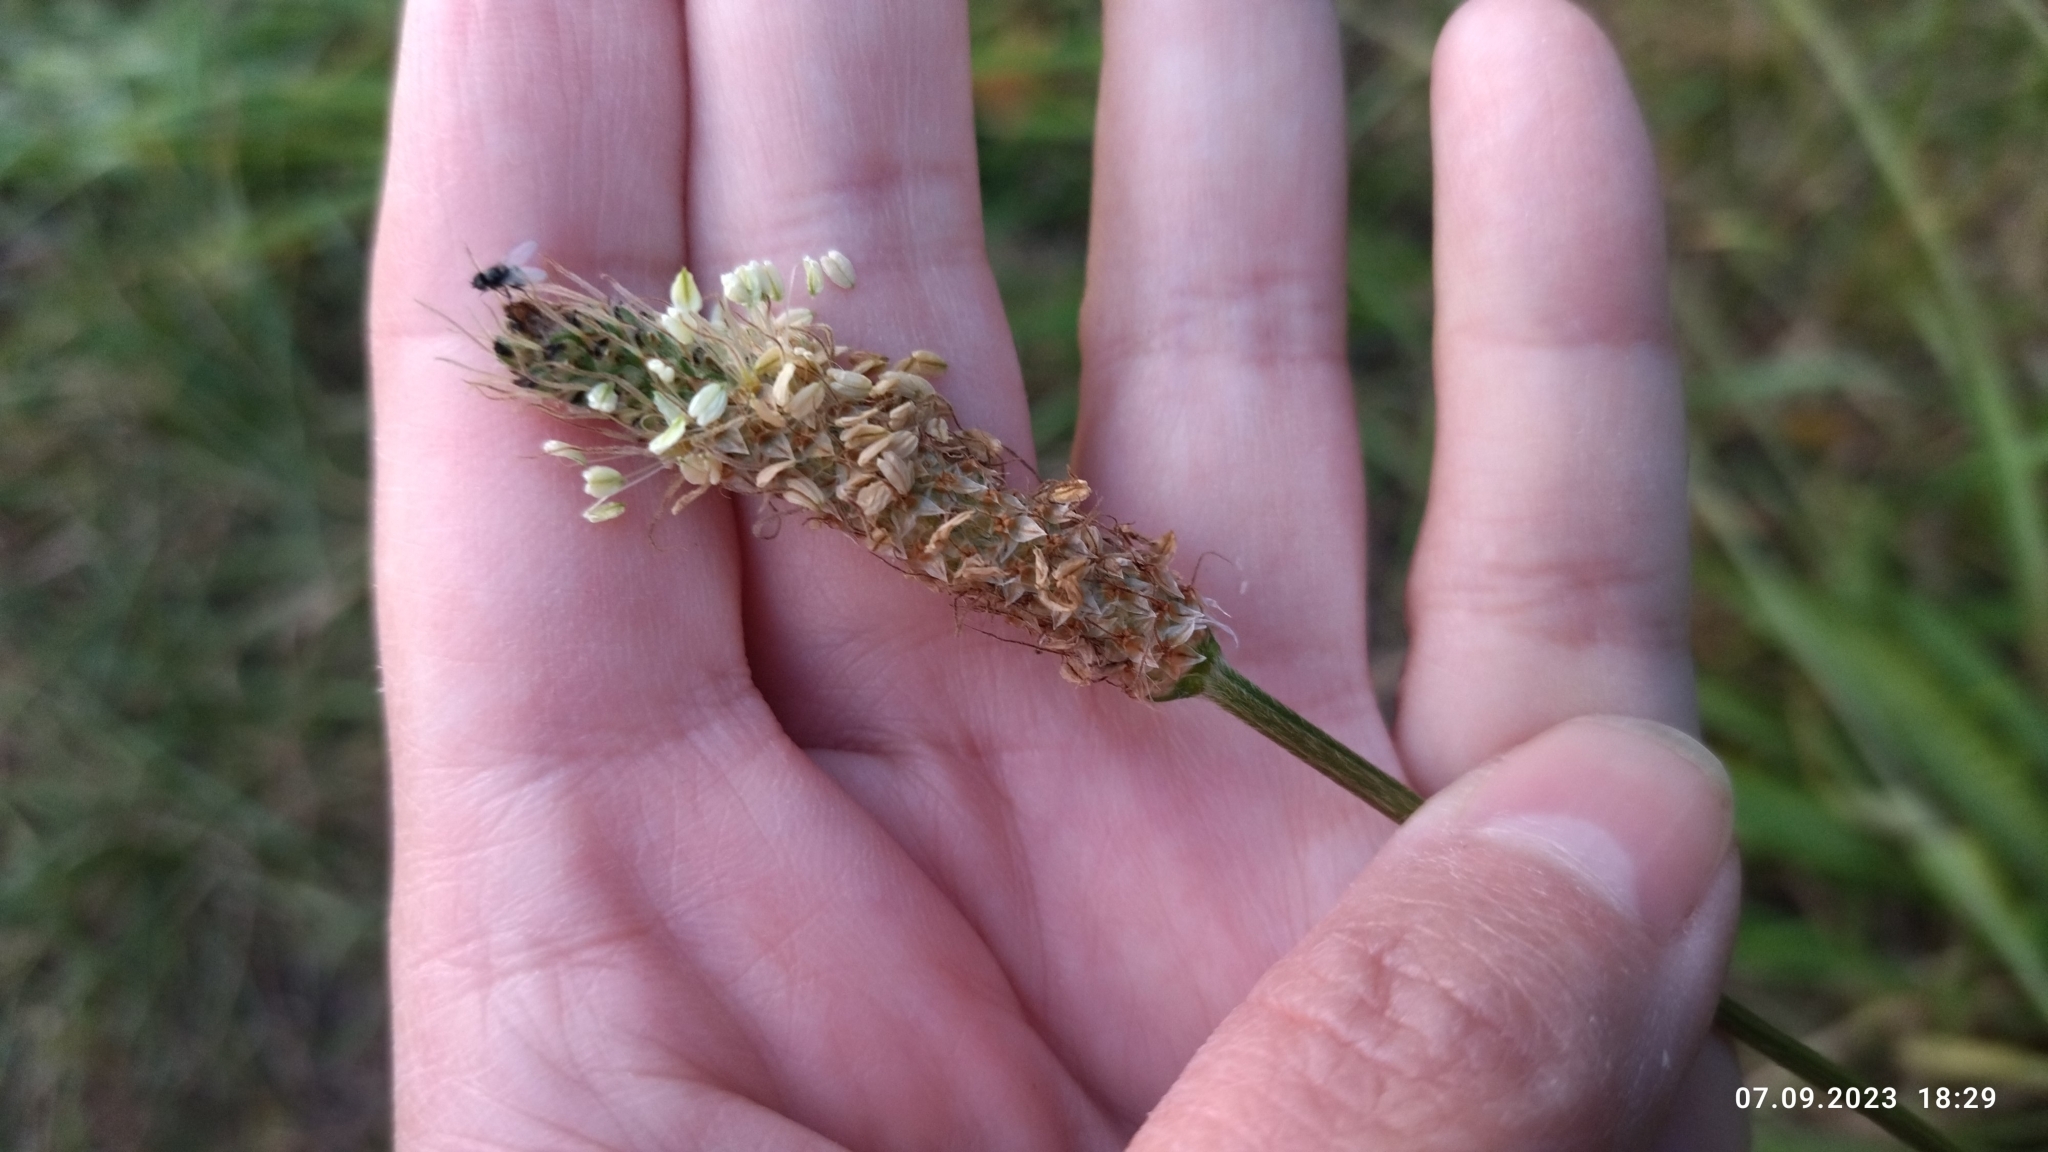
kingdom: Plantae
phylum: Tracheophyta
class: Magnoliopsida
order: Lamiales
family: Plantaginaceae
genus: Plantago
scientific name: Plantago lanceolata
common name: Ribwort plantain
